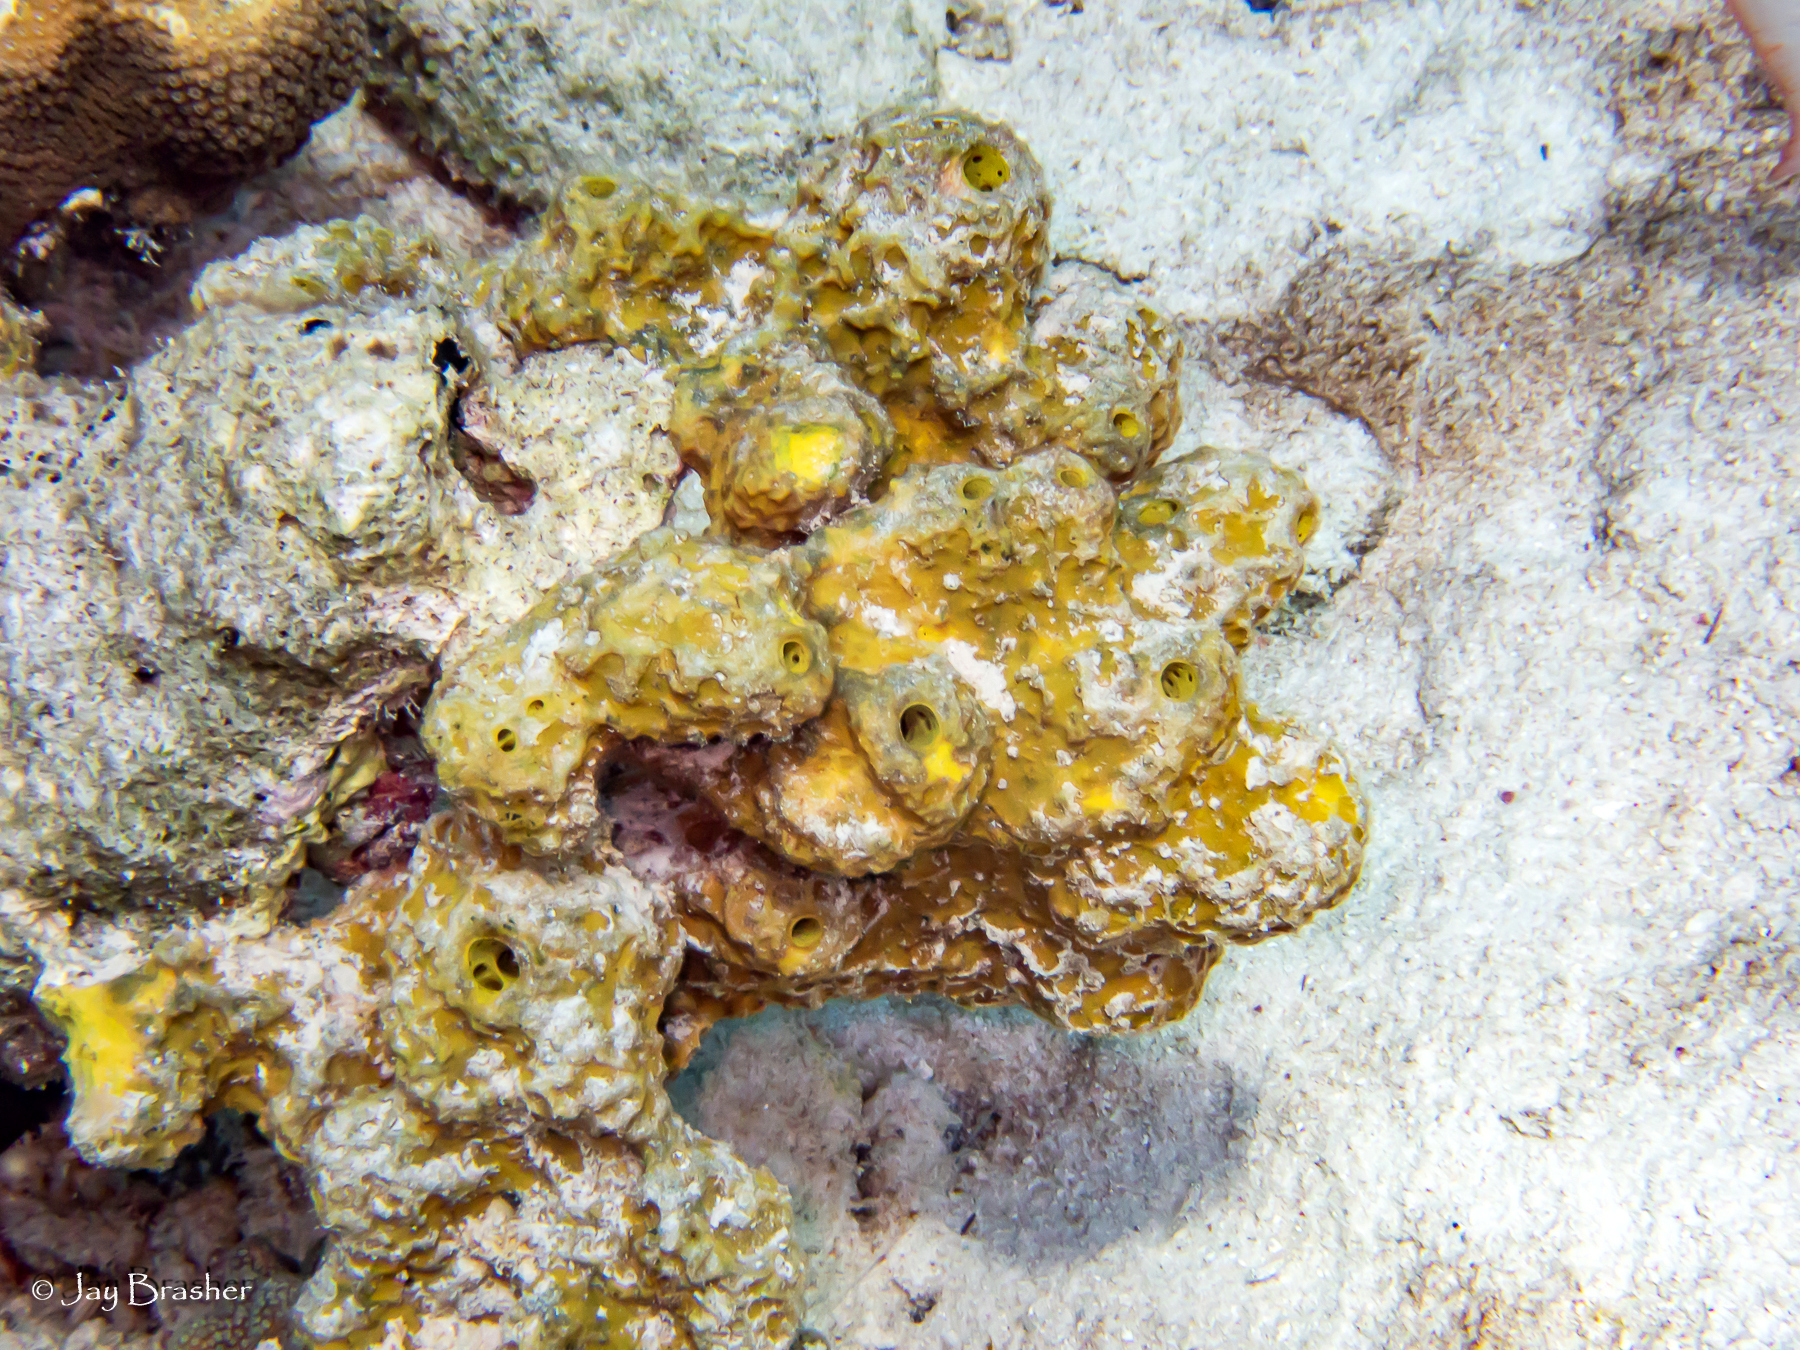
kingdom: Animalia
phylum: Porifera
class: Demospongiae
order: Verongiida
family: Aplysinidae
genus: Aiolochroia
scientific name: Aiolochroia crassa
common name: Branching tube sponge
